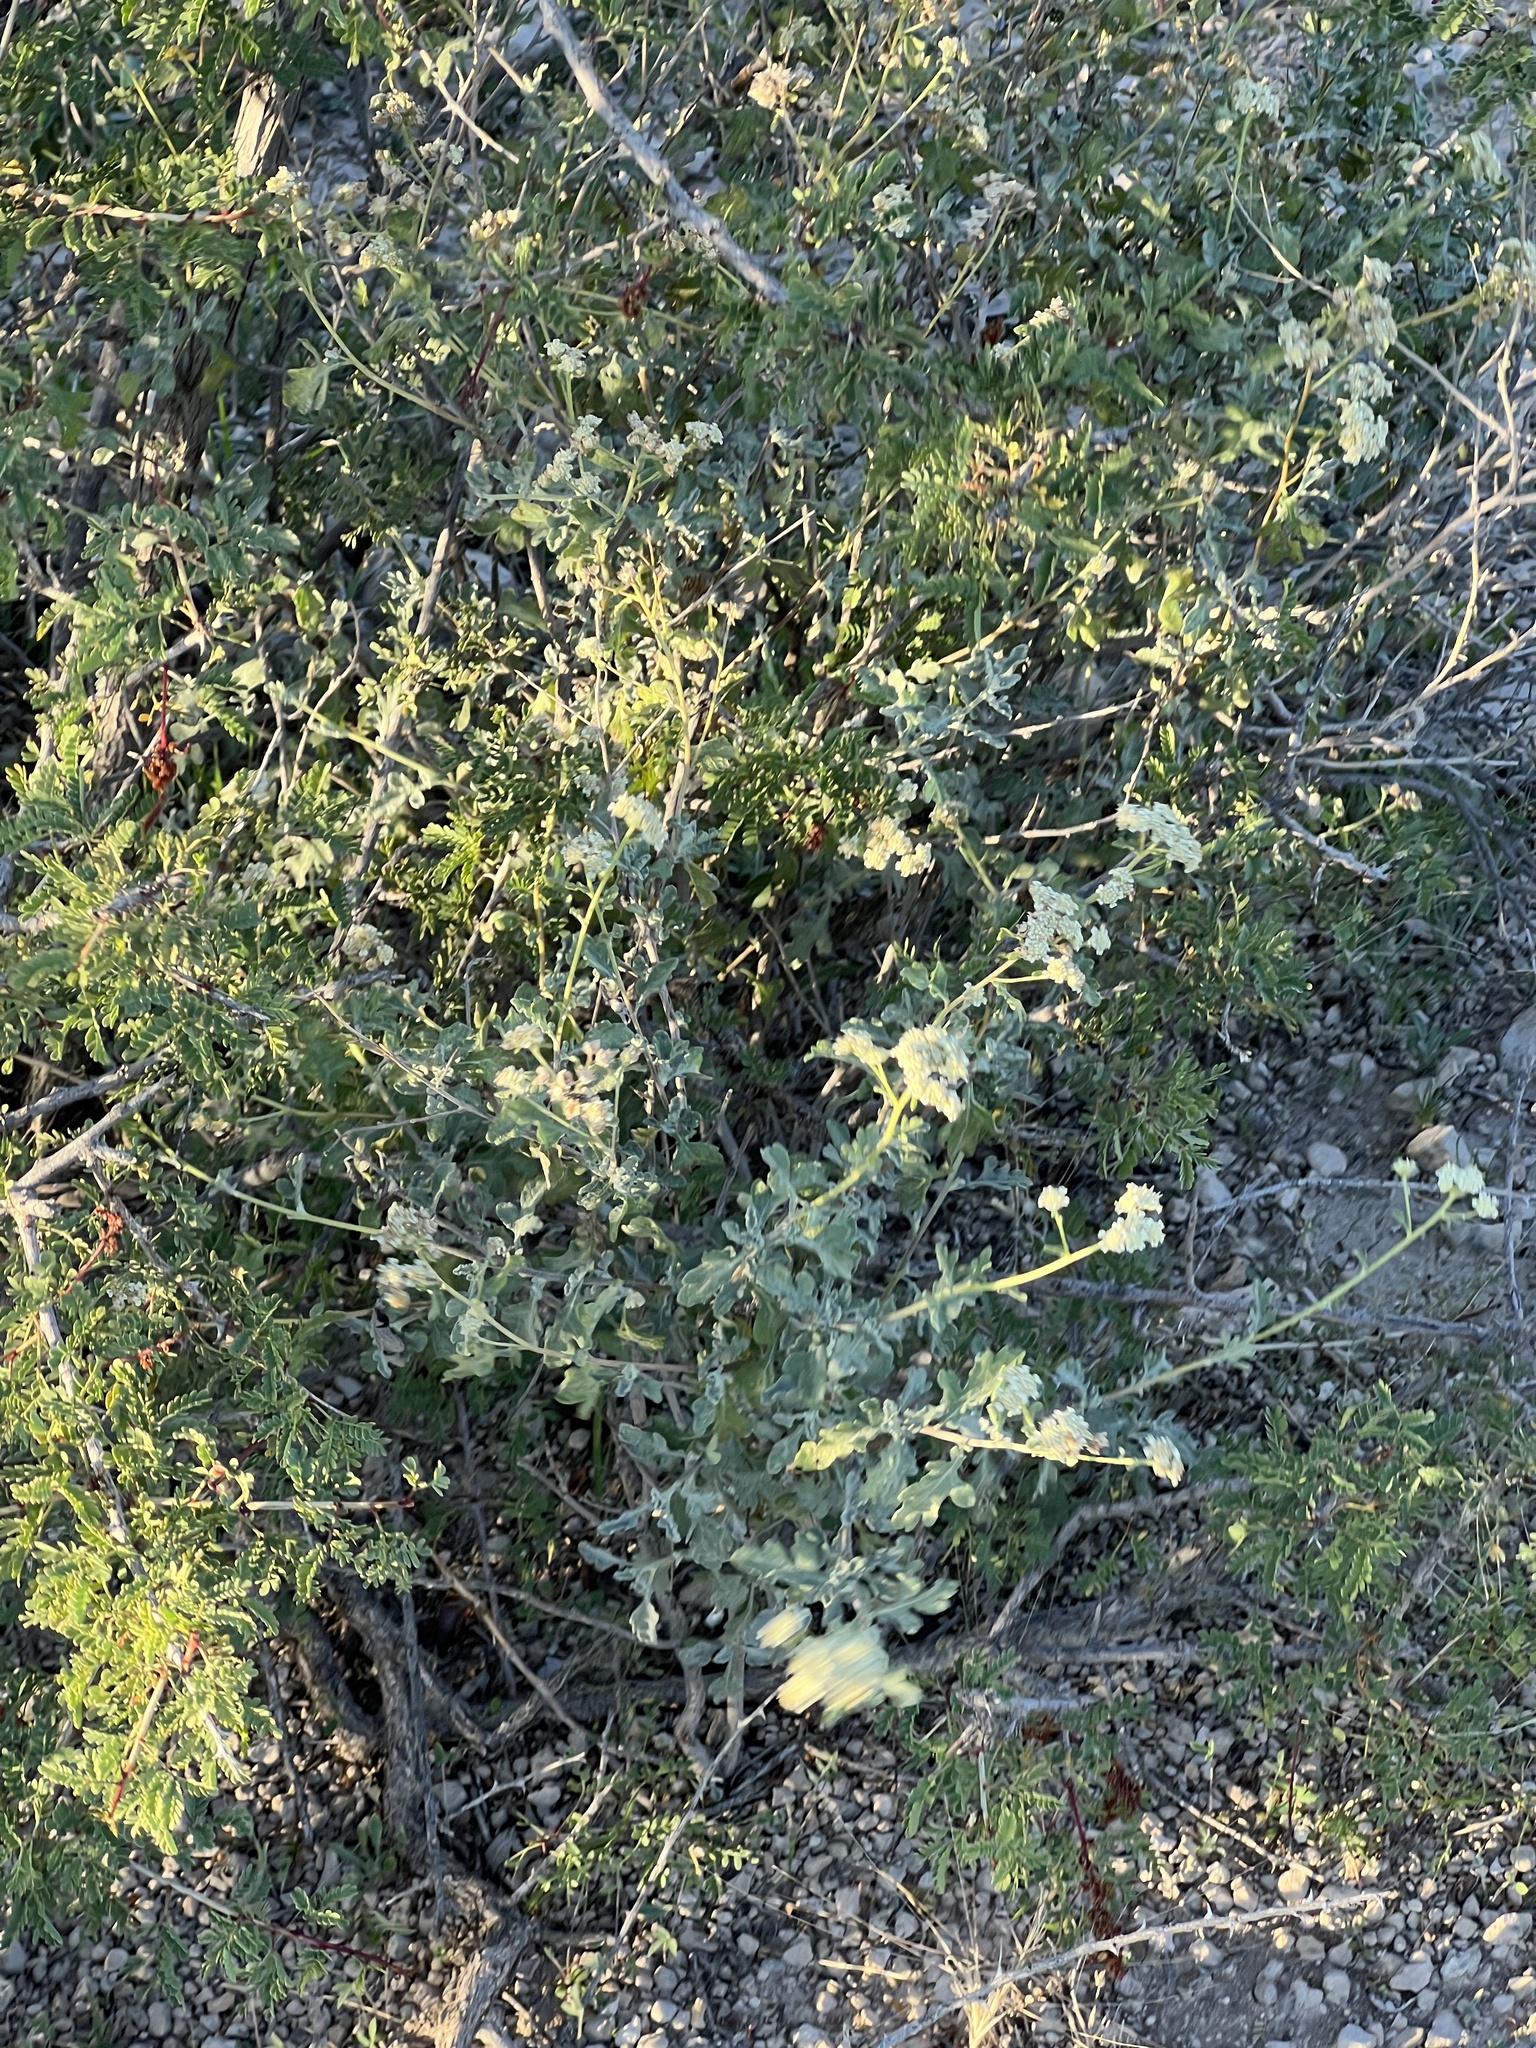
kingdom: Plantae
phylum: Tracheophyta
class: Magnoliopsida
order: Asterales
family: Asteraceae
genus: Parthenium
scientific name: Parthenium incanum
